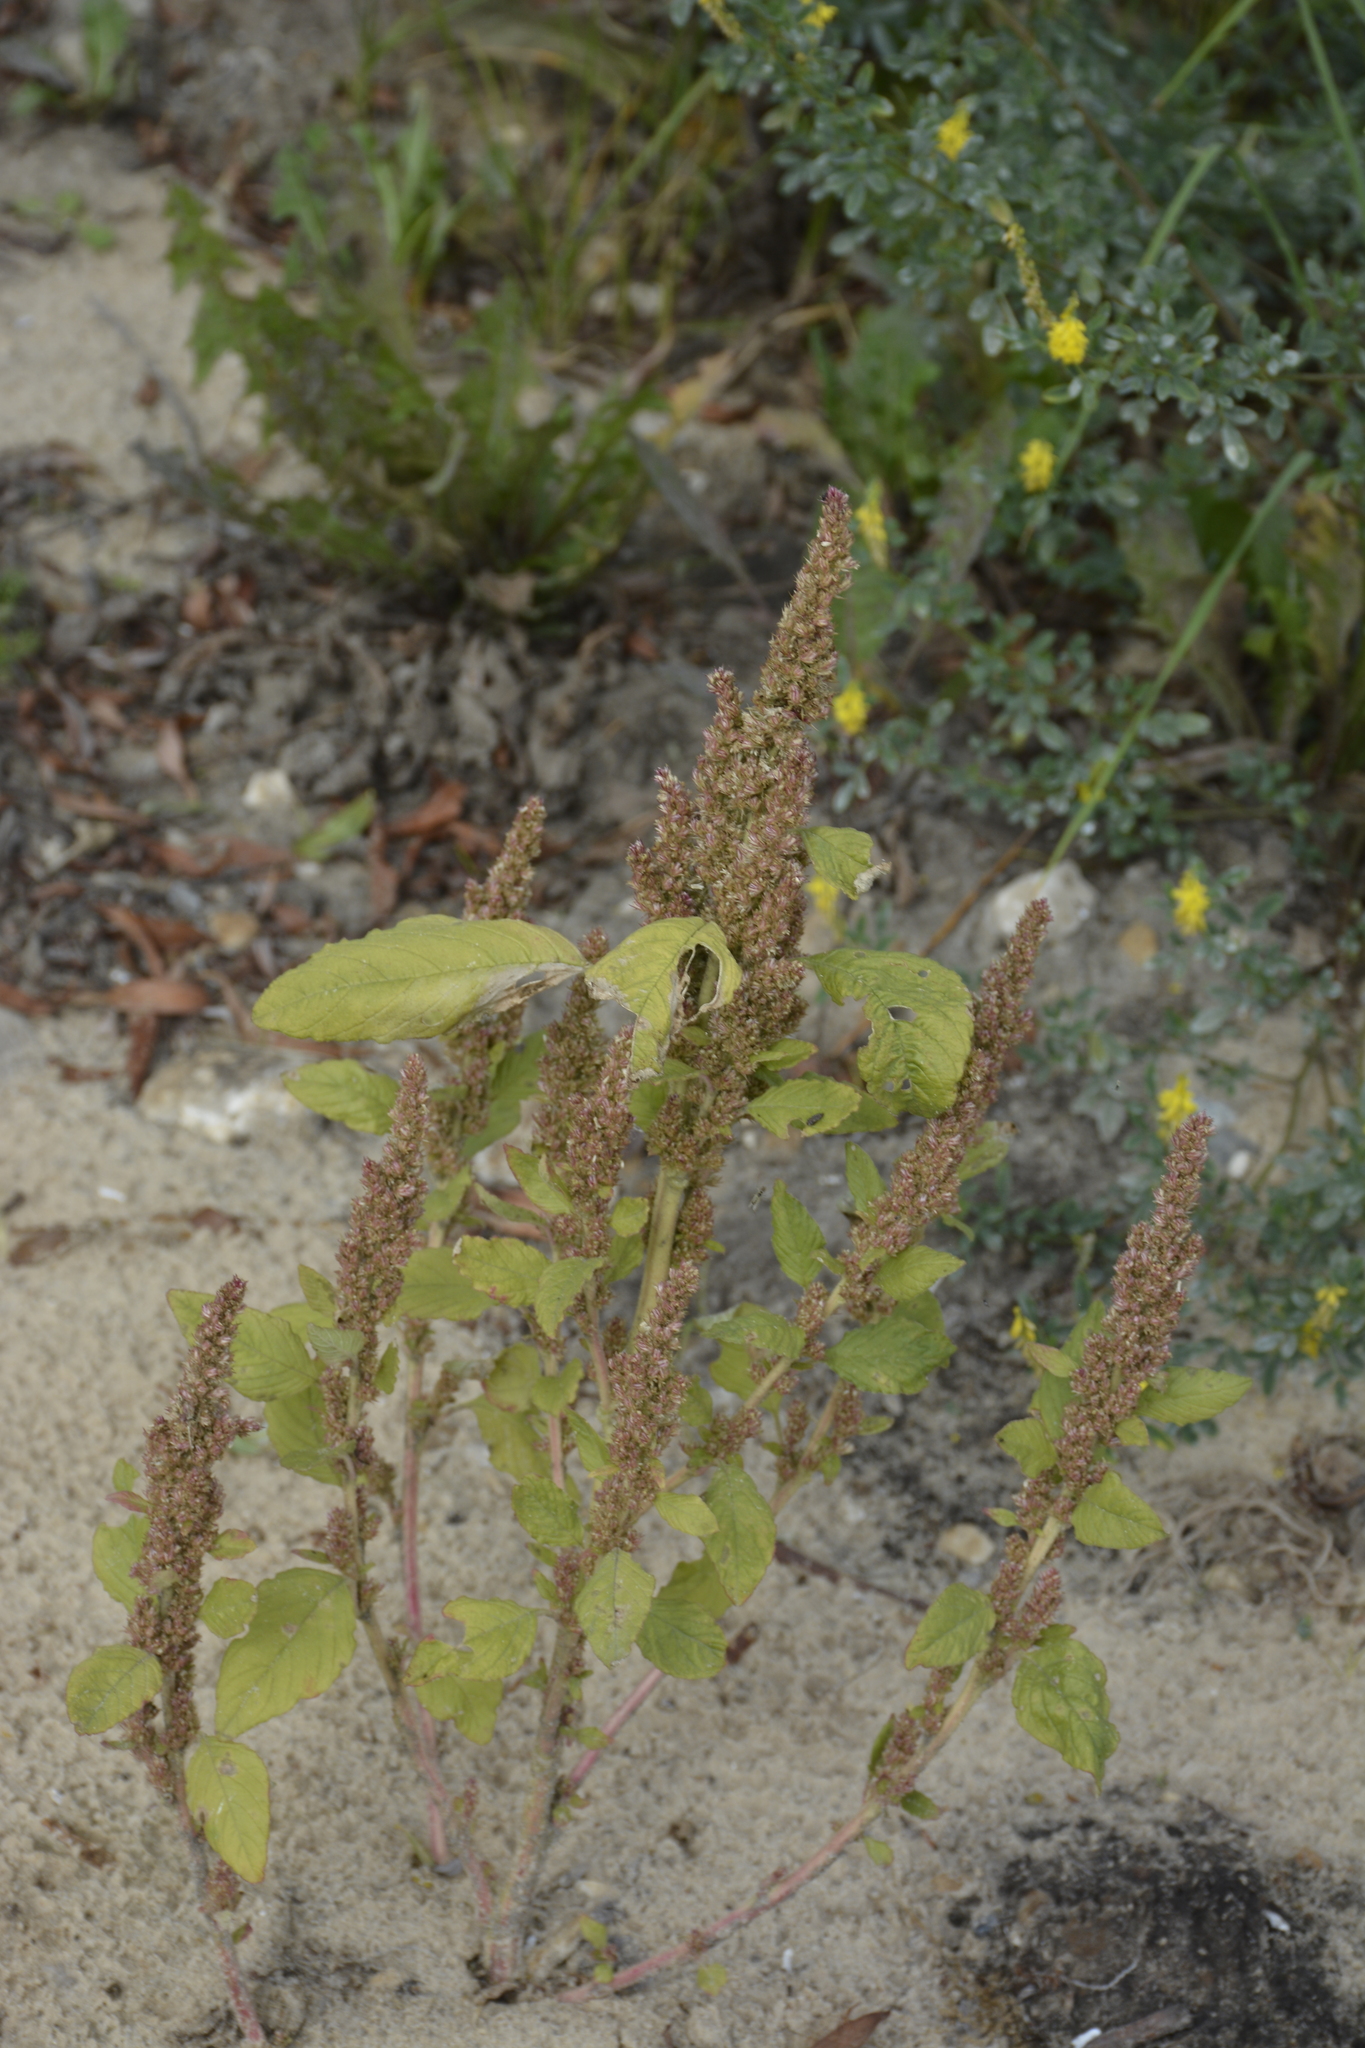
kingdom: Plantae
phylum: Tracheophyta
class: Magnoliopsida
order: Caryophyllales
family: Amaranthaceae
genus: Amaranthus
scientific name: Amaranthus retroflexus
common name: Redroot amaranth
